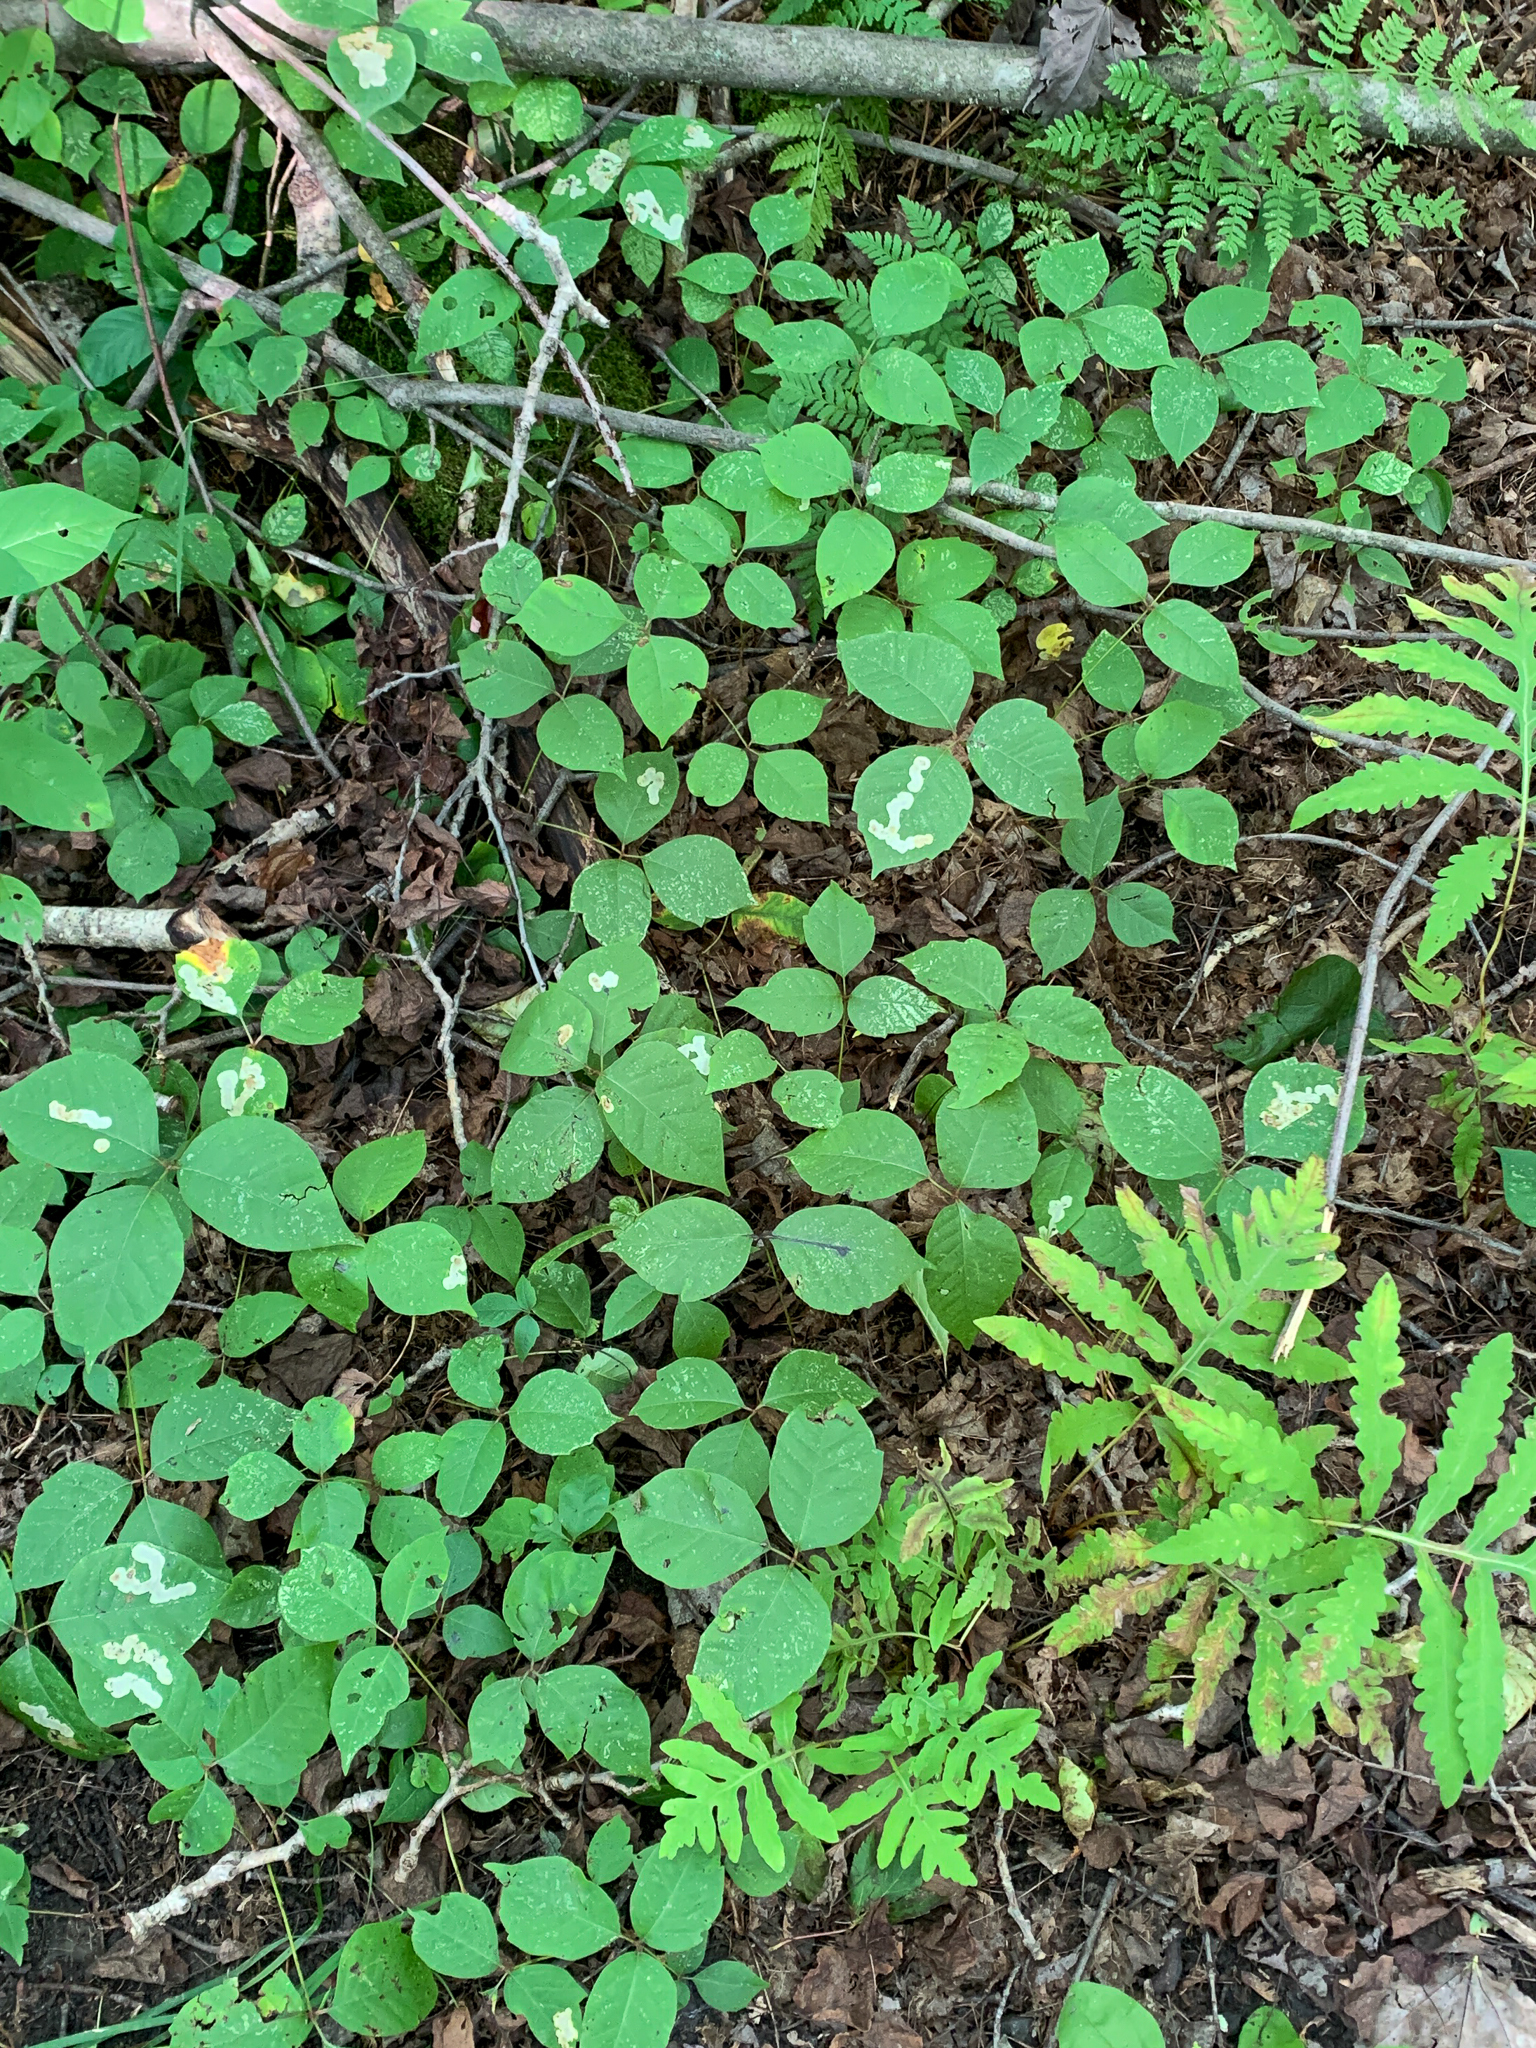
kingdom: Plantae
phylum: Tracheophyta
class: Magnoliopsida
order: Sapindales
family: Anacardiaceae
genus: Toxicodendron
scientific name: Toxicodendron radicans
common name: Poison ivy
